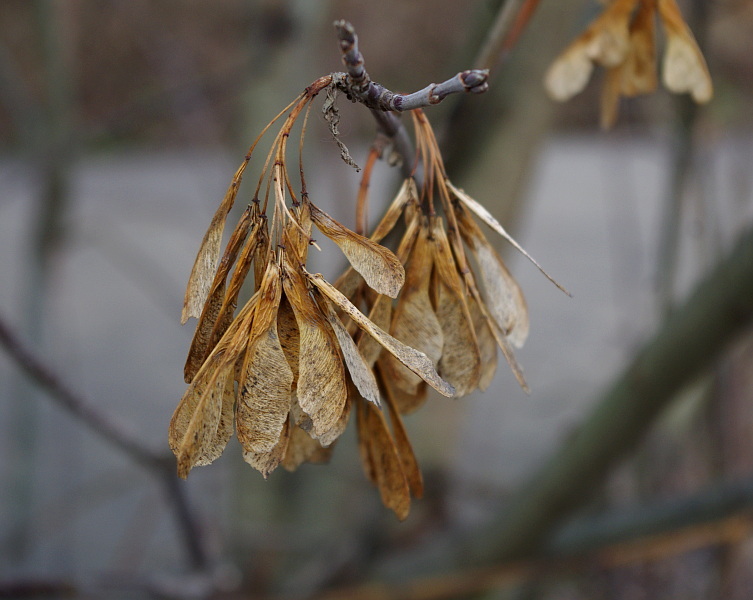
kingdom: Plantae
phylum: Tracheophyta
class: Magnoliopsida
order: Sapindales
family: Sapindaceae
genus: Acer
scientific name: Acer negundo
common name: Ashleaf maple
